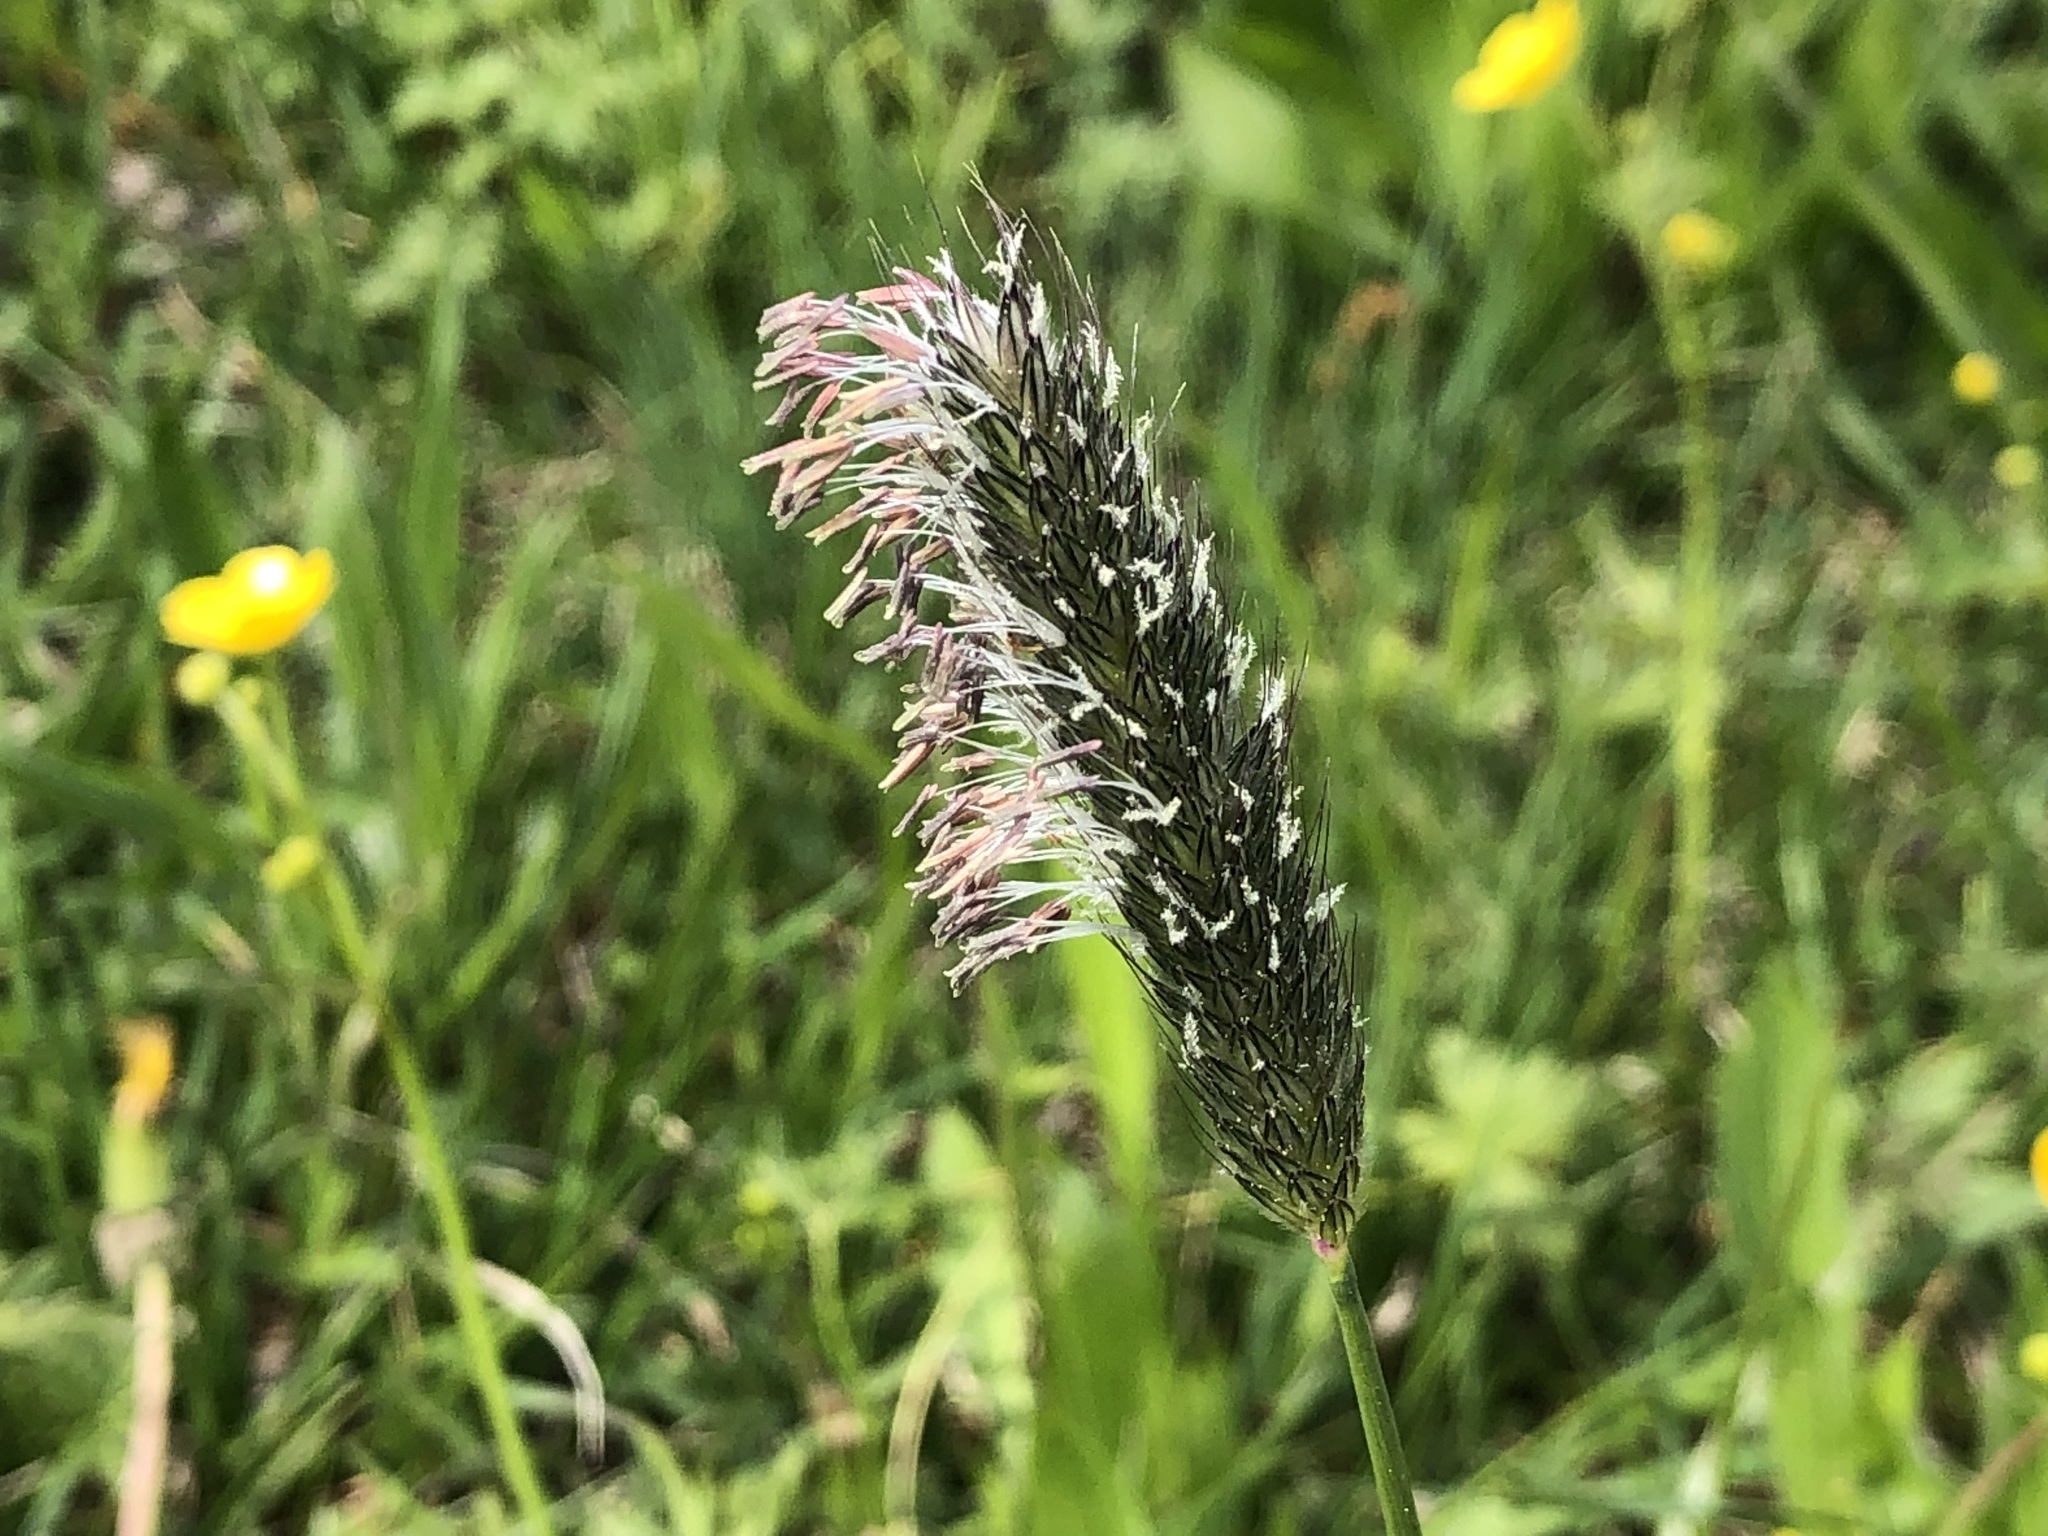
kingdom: Plantae
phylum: Tracheophyta
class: Liliopsida
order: Poales
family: Poaceae
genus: Alopecurus
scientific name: Alopecurus pratensis
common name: Meadow foxtail
